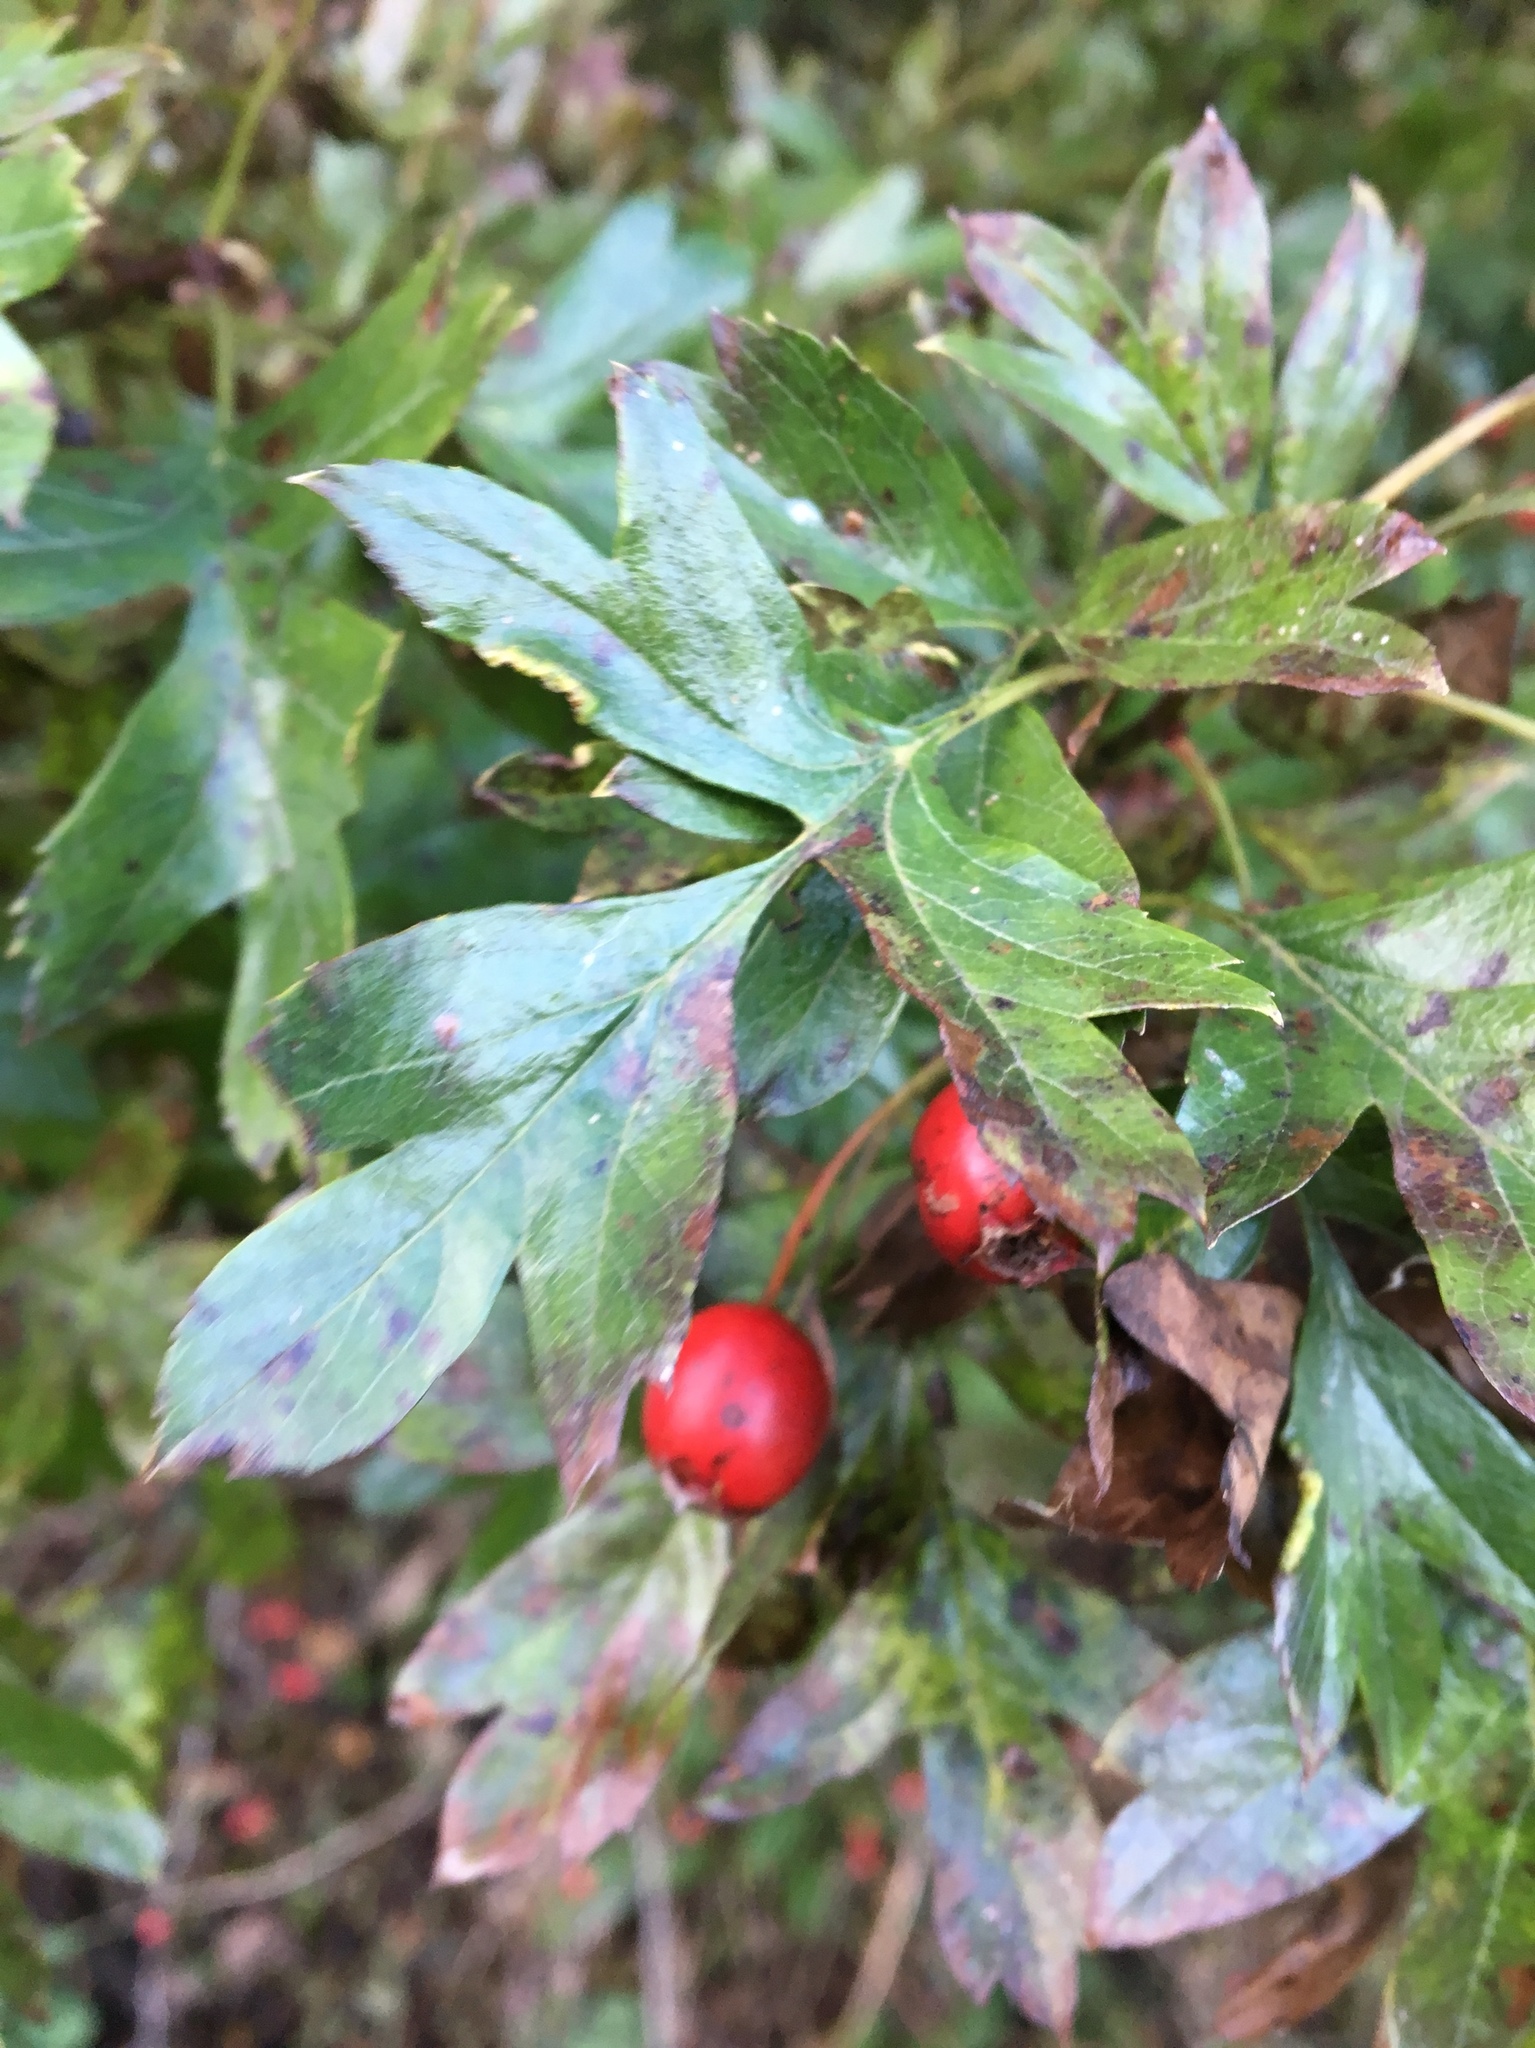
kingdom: Plantae
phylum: Tracheophyta
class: Magnoliopsida
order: Rosales
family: Rosaceae
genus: Crataegus
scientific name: Crataegus monogyna
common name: Hawthorn
